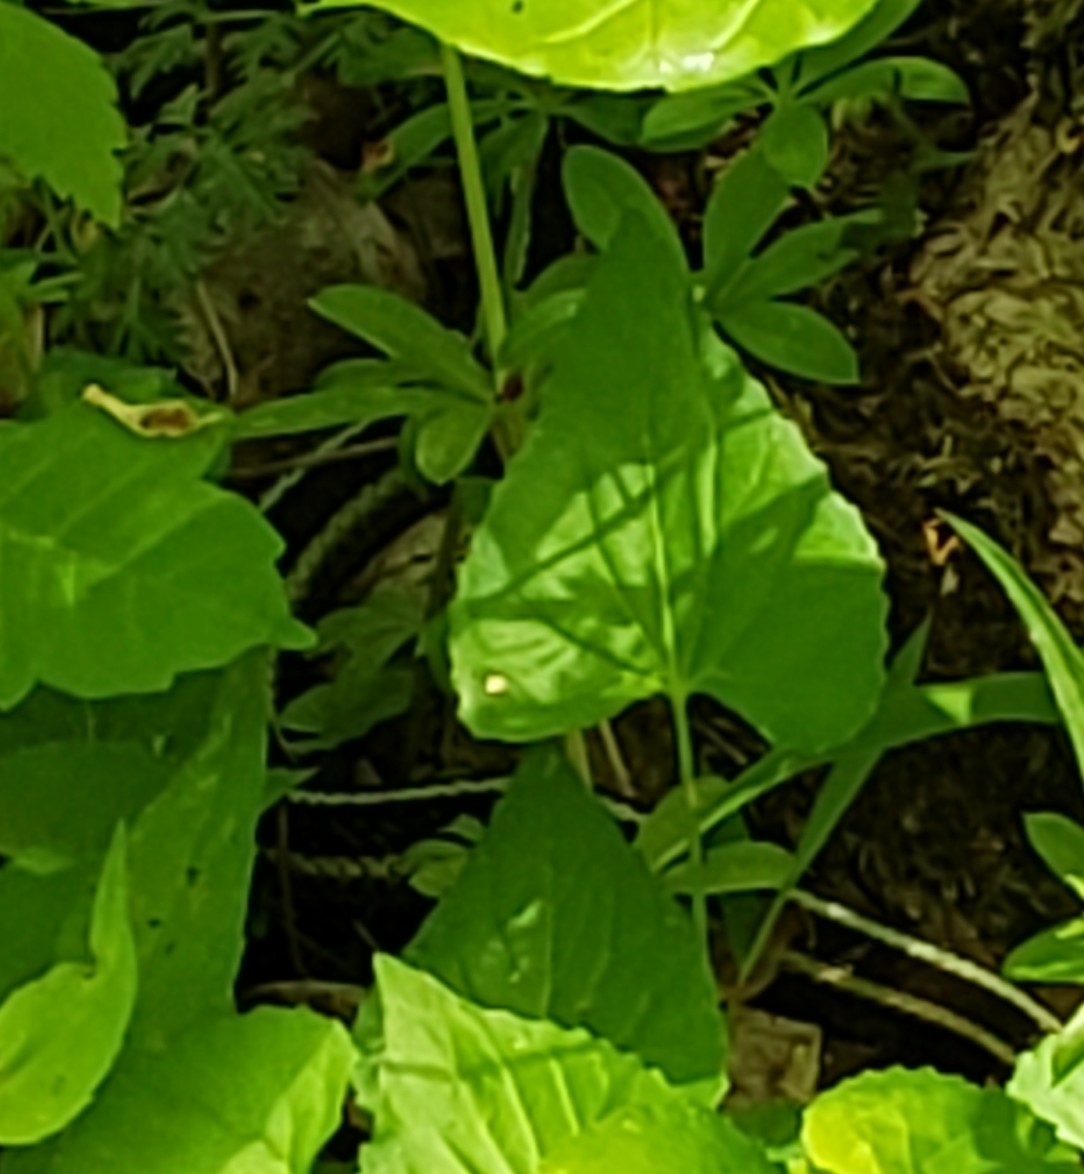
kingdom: Animalia
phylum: Chordata
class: Squamata
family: Colubridae
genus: Thamnophis
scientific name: Thamnophis sirtalis
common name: Common garter snake
